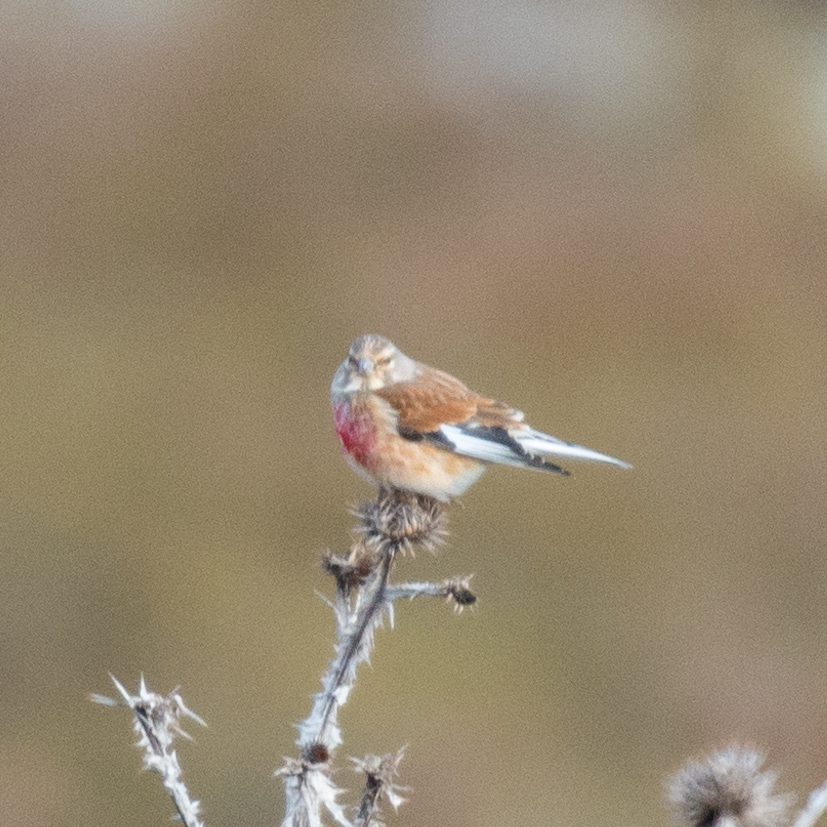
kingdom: Animalia
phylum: Chordata
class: Aves
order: Passeriformes
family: Fringillidae
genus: Linaria
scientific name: Linaria cannabina
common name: Common linnet
